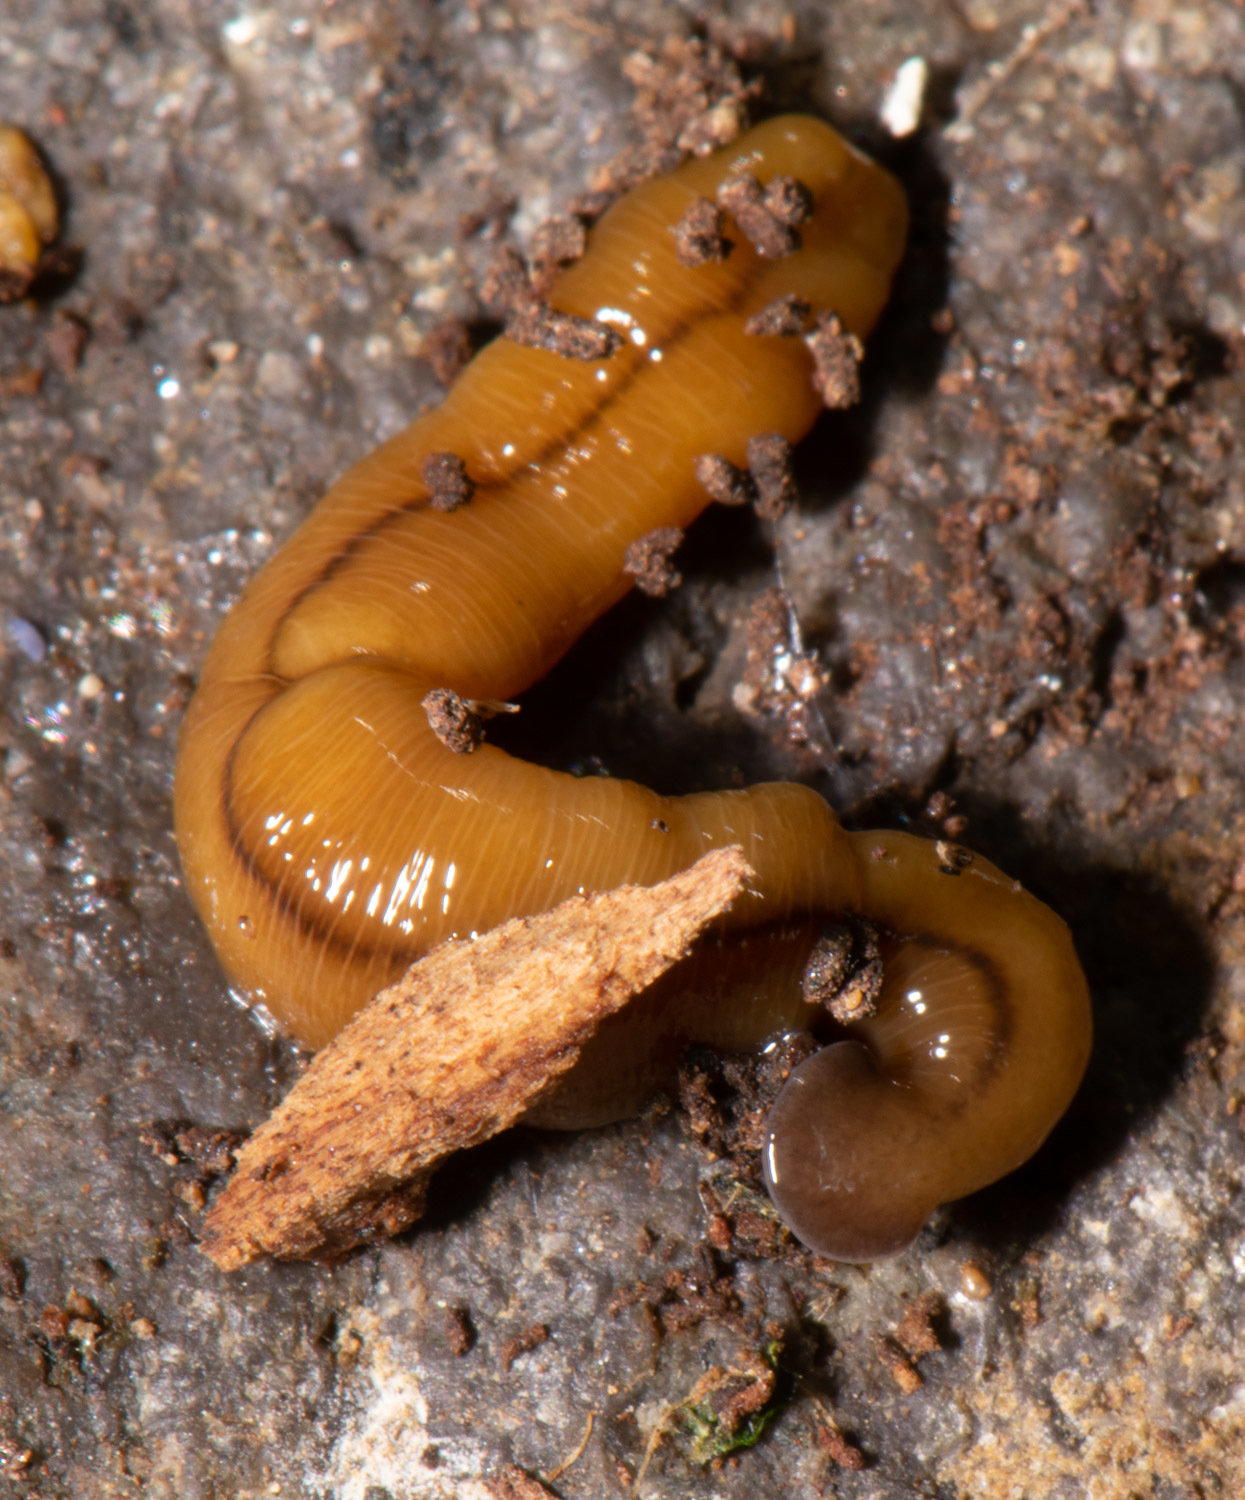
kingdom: Animalia
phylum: Platyhelminthes
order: Tricladida
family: Geoplanidae
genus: Bipalium
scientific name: Bipalium adventitium
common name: Land planarian
